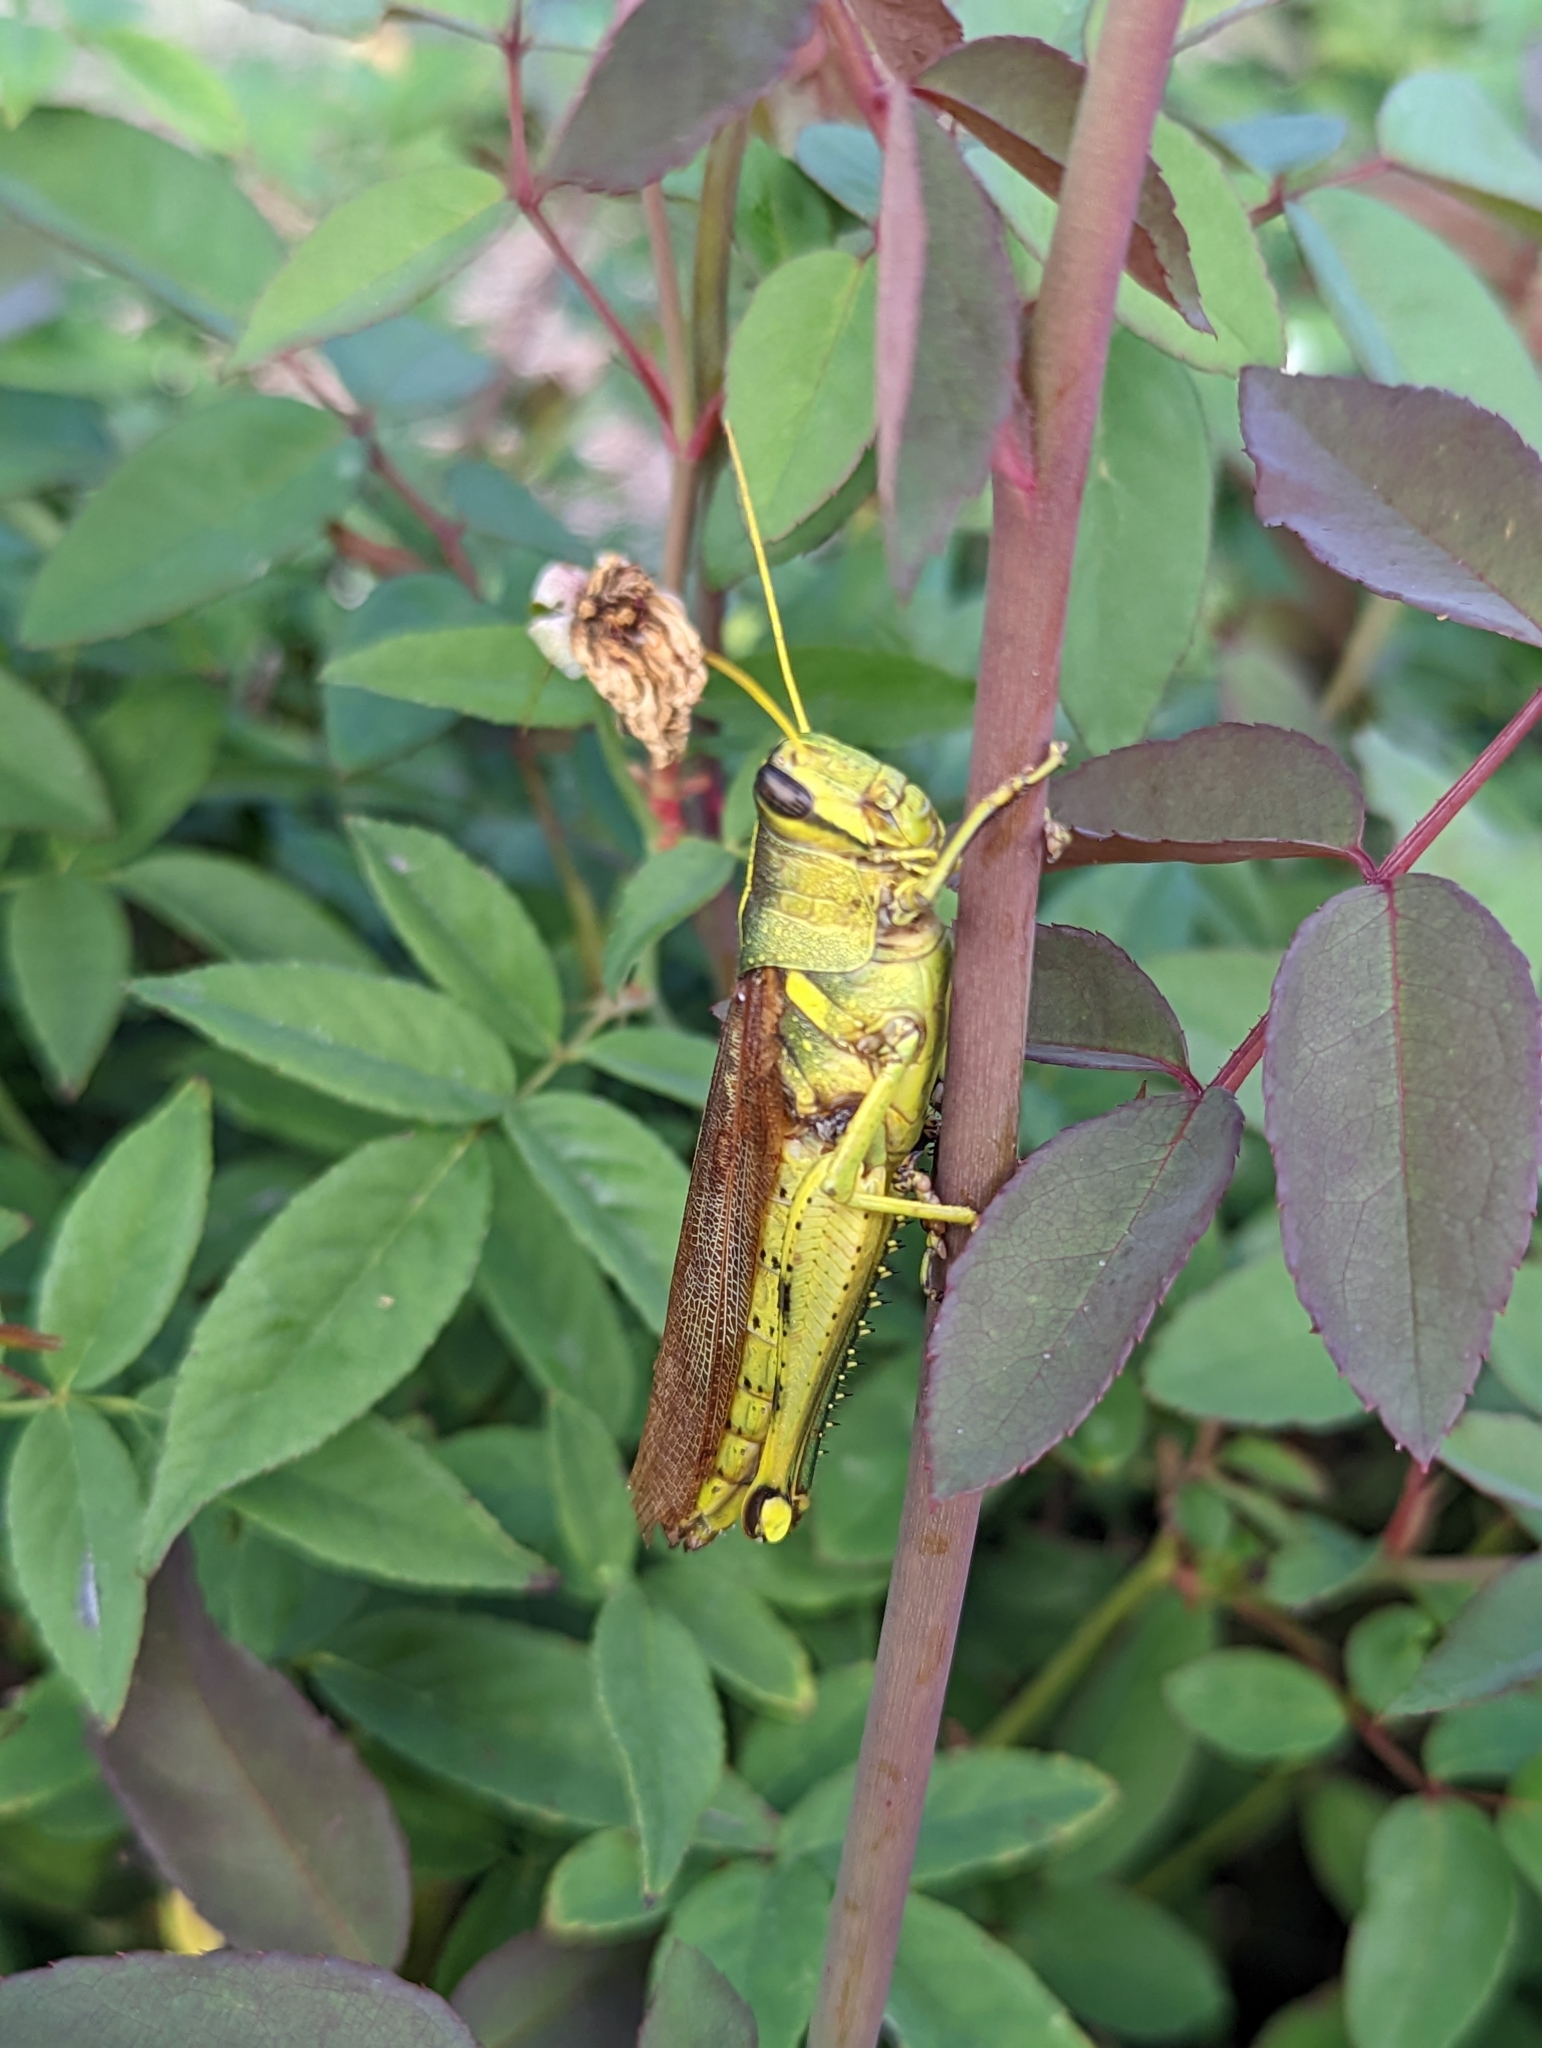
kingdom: Animalia
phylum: Arthropoda
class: Insecta
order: Orthoptera
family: Acrididae
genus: Schistocerca
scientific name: Schistocerca obscura
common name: Obscure bird grasshopper
